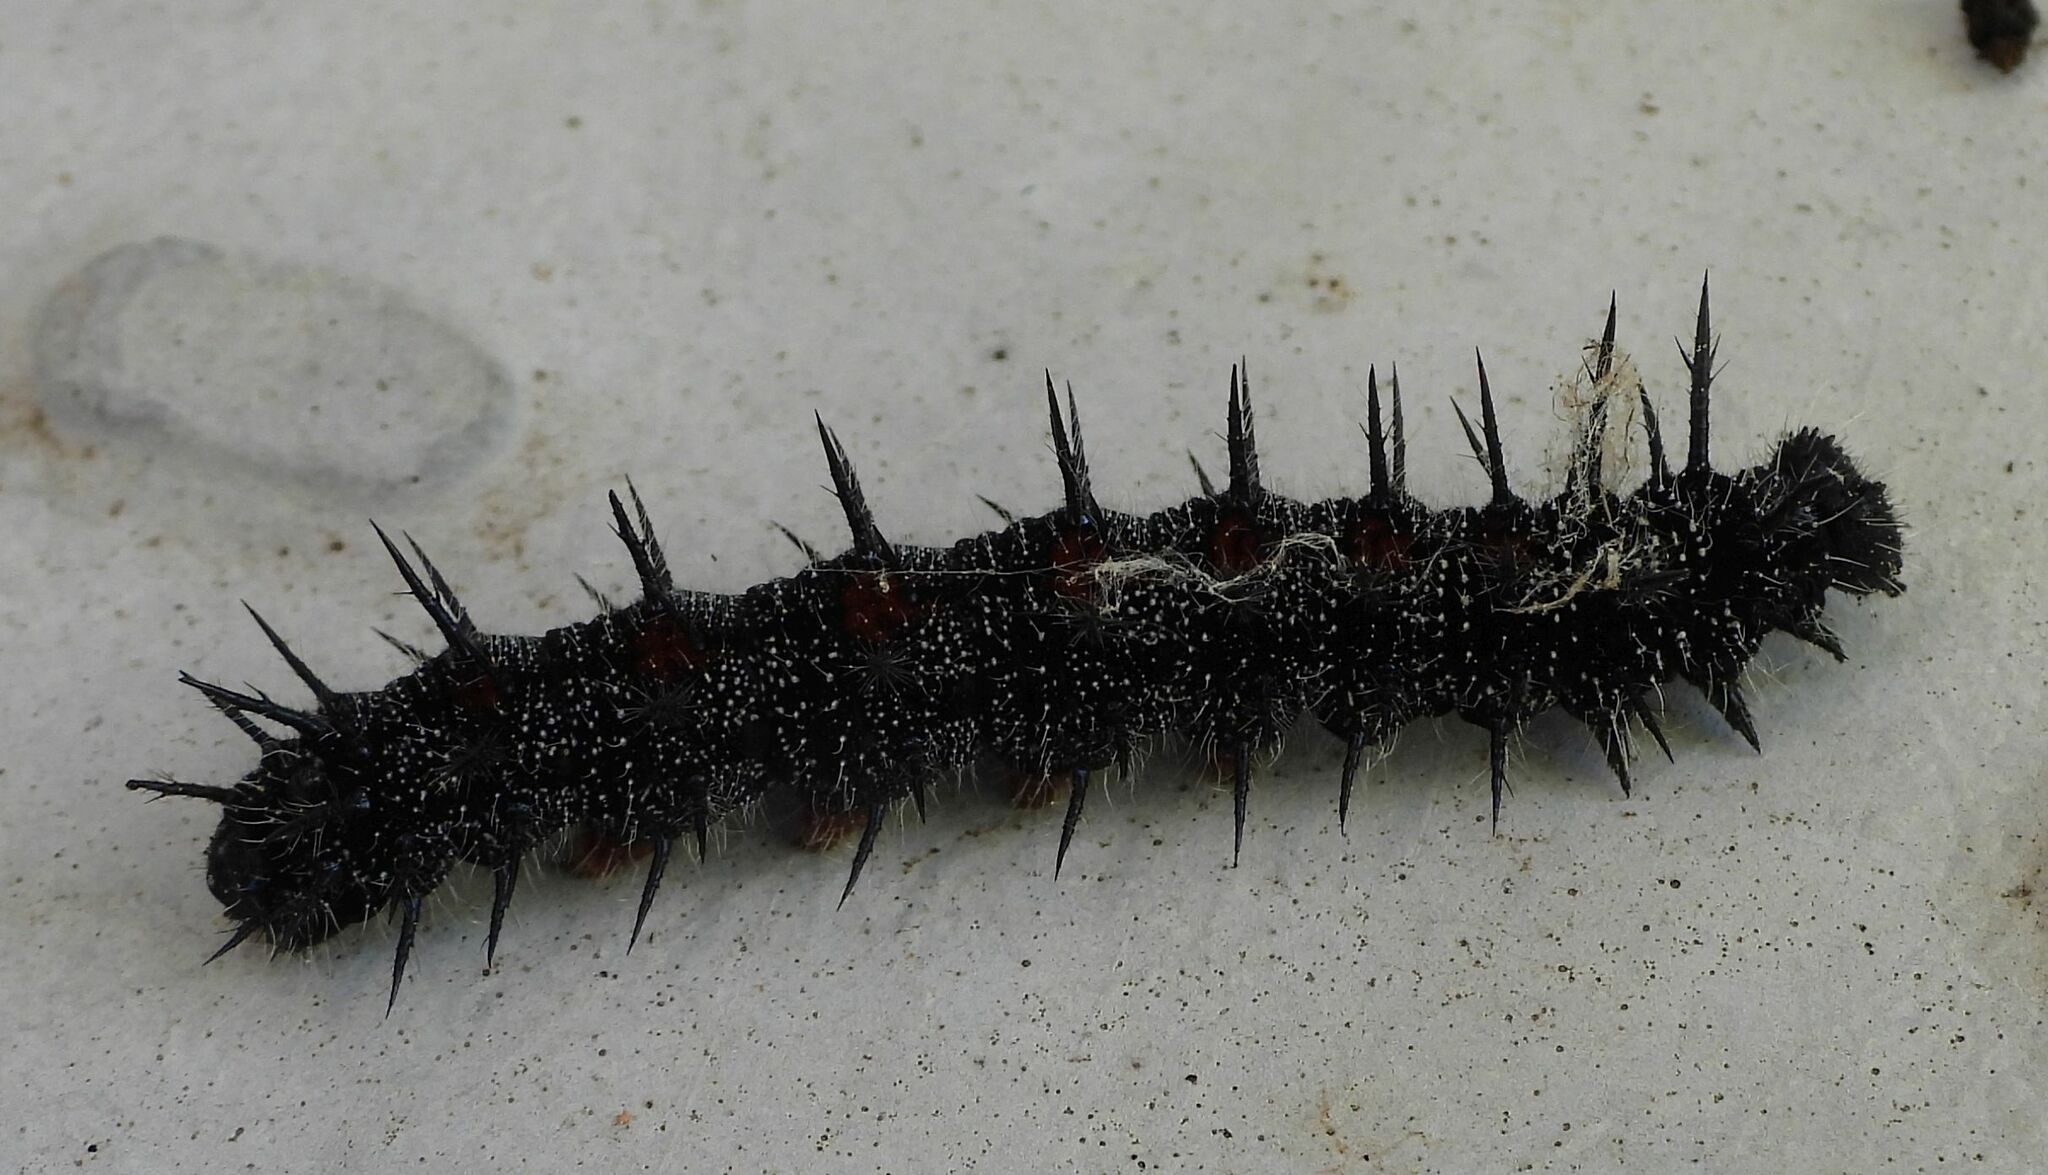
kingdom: Animalia
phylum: Arthropoda
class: Insecta
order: Lepidoptera
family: Nymphalidae
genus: Nymphalis
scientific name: Nymphalis antiopa
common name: Camberwell beauty
